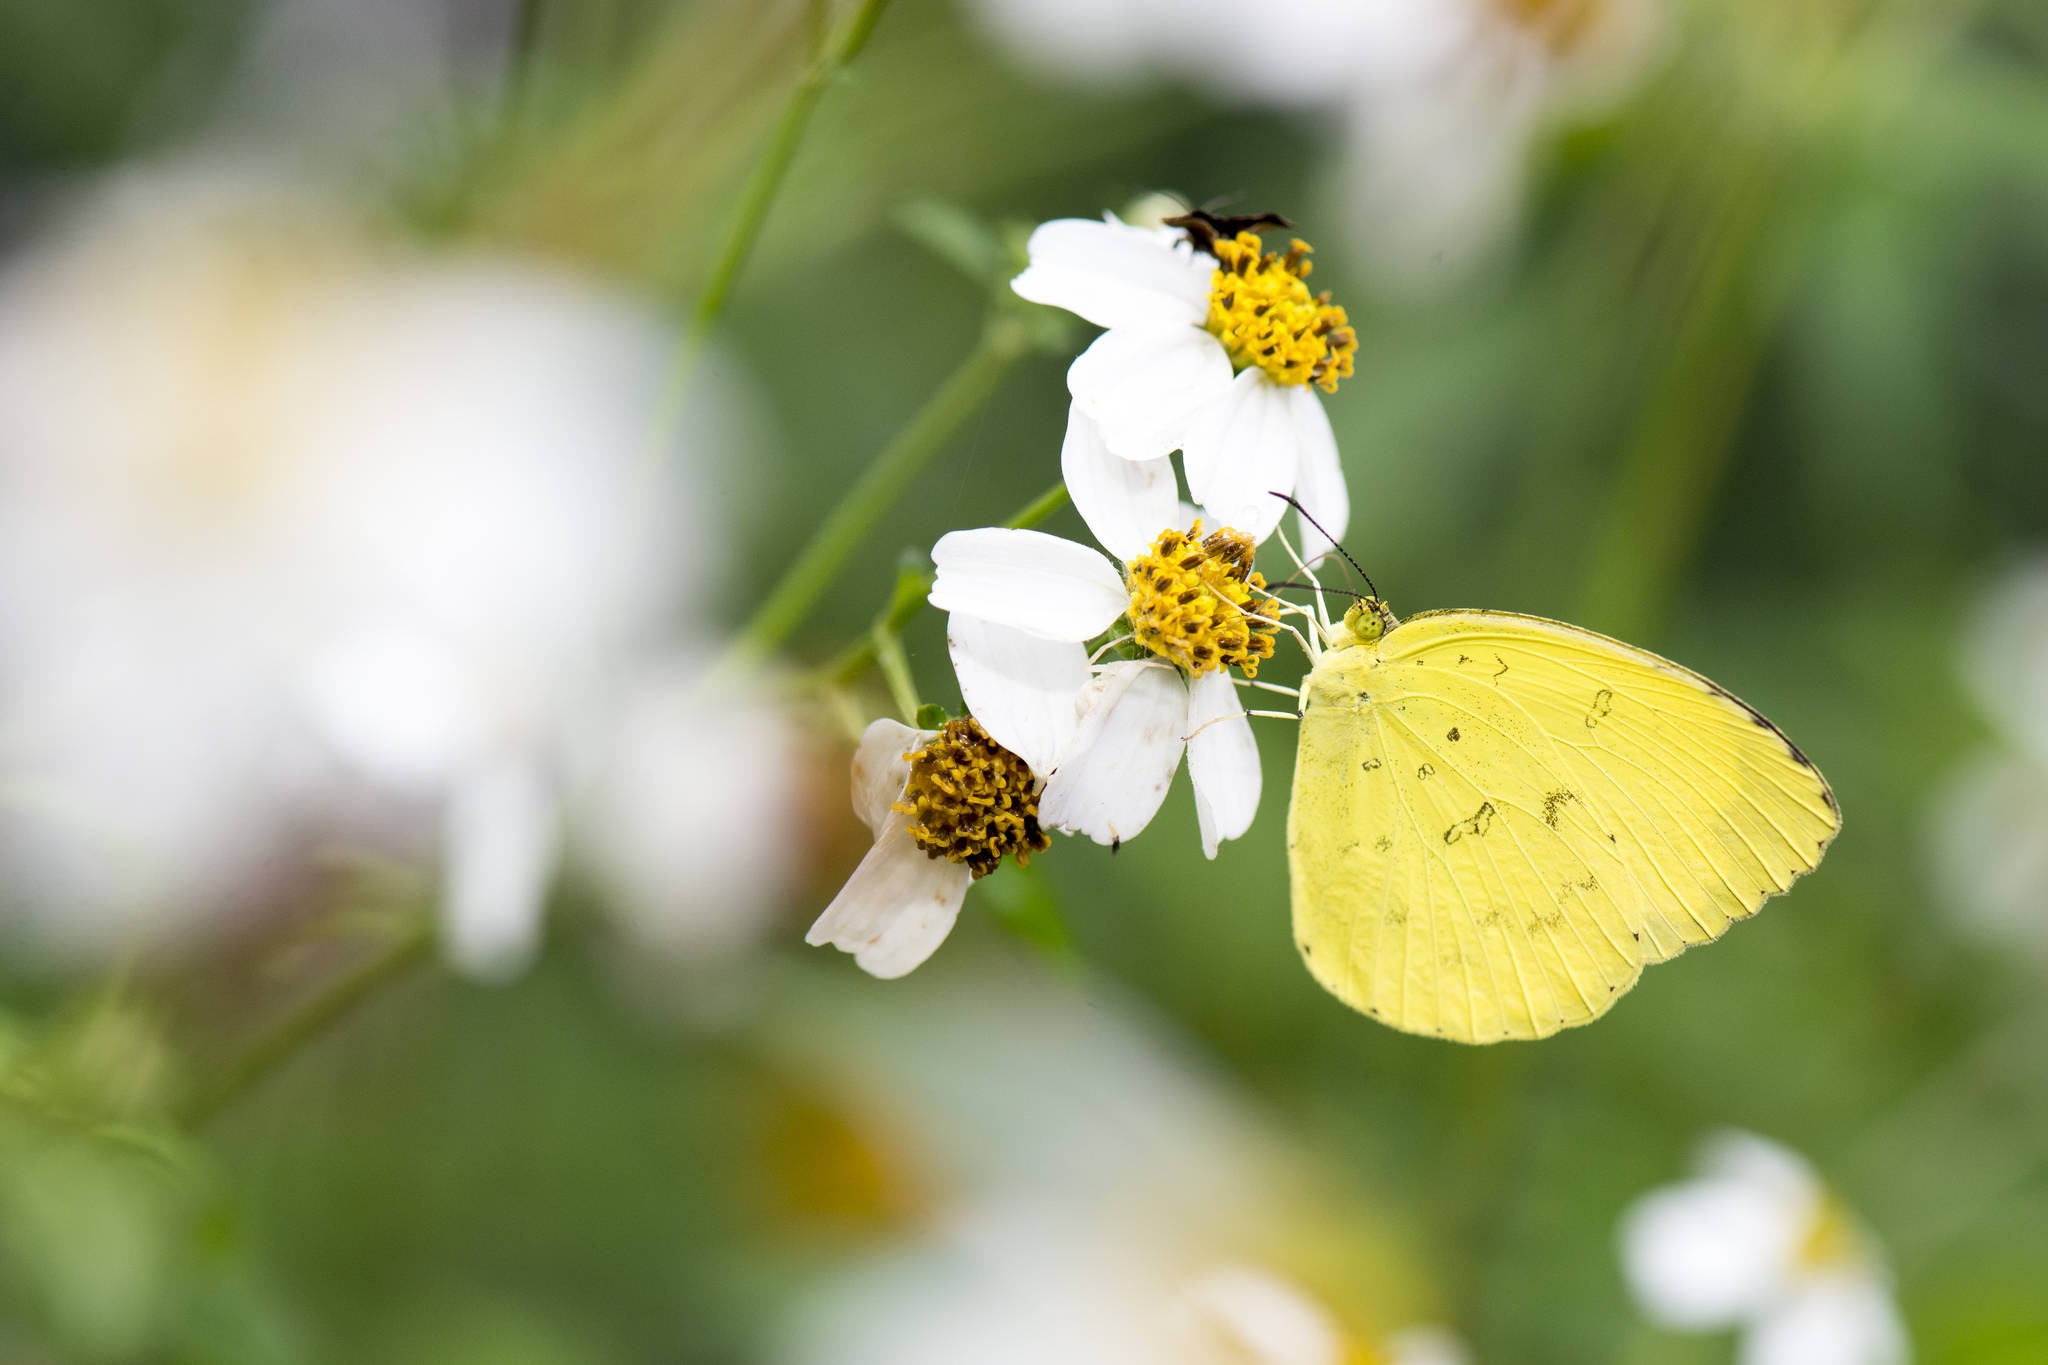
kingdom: Animalia
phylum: Arthropoda
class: Insecta
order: Lepidoptera
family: Pieridae
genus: Eurema
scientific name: Eurema blanda
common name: Three-spot grass yellow
